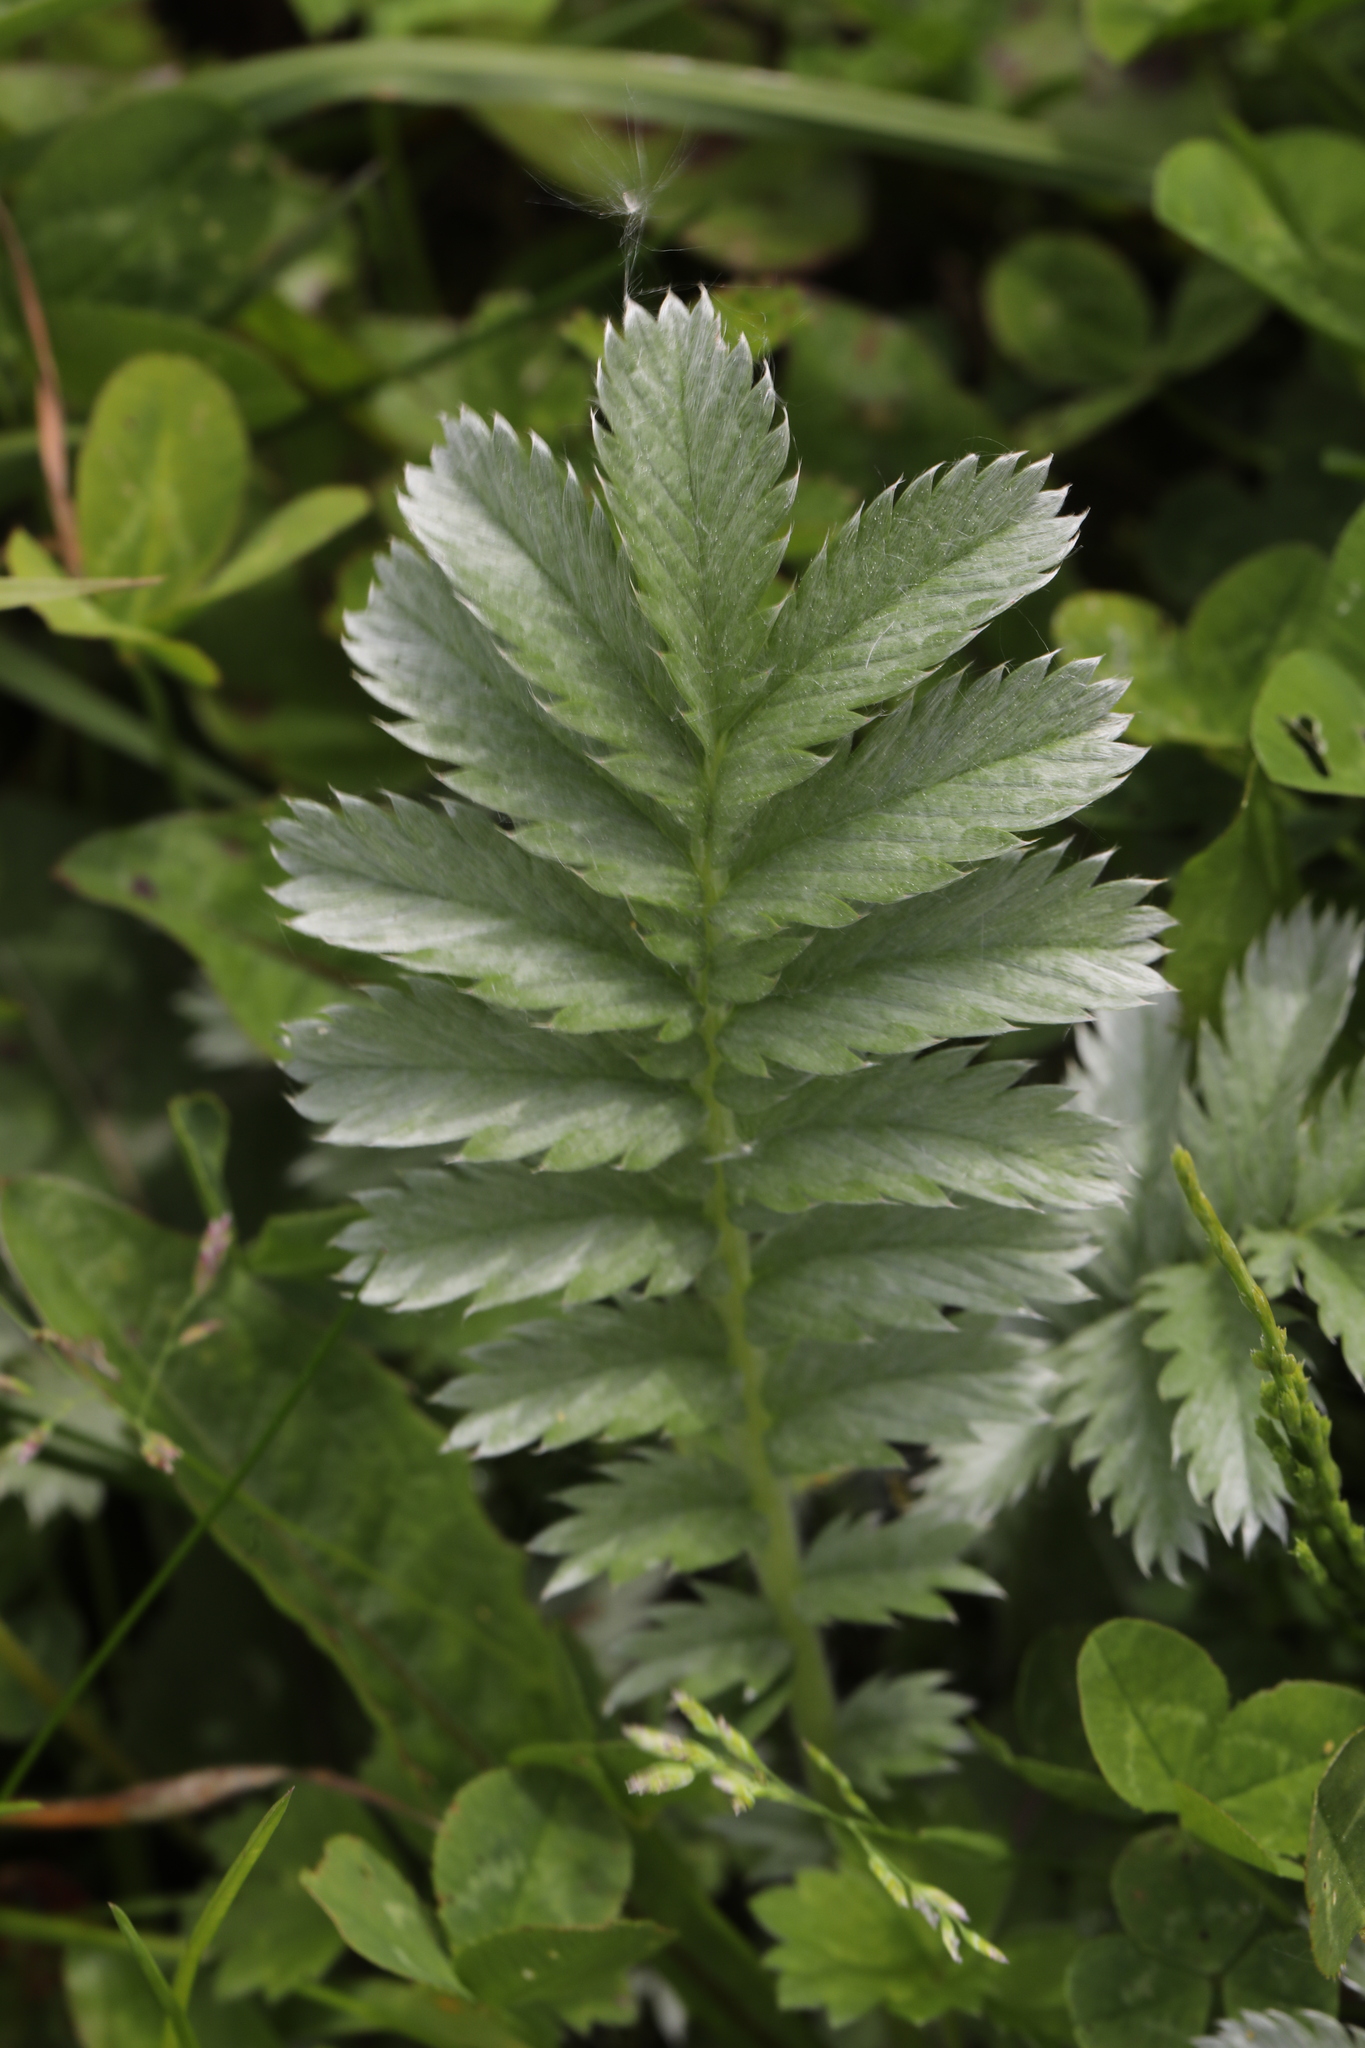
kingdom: Plantae
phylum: Tracheophyta
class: Magnoliopsida
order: Rosales
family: Rosaceae
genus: Argentina
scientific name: Argentina anserina
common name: Common silverweed
